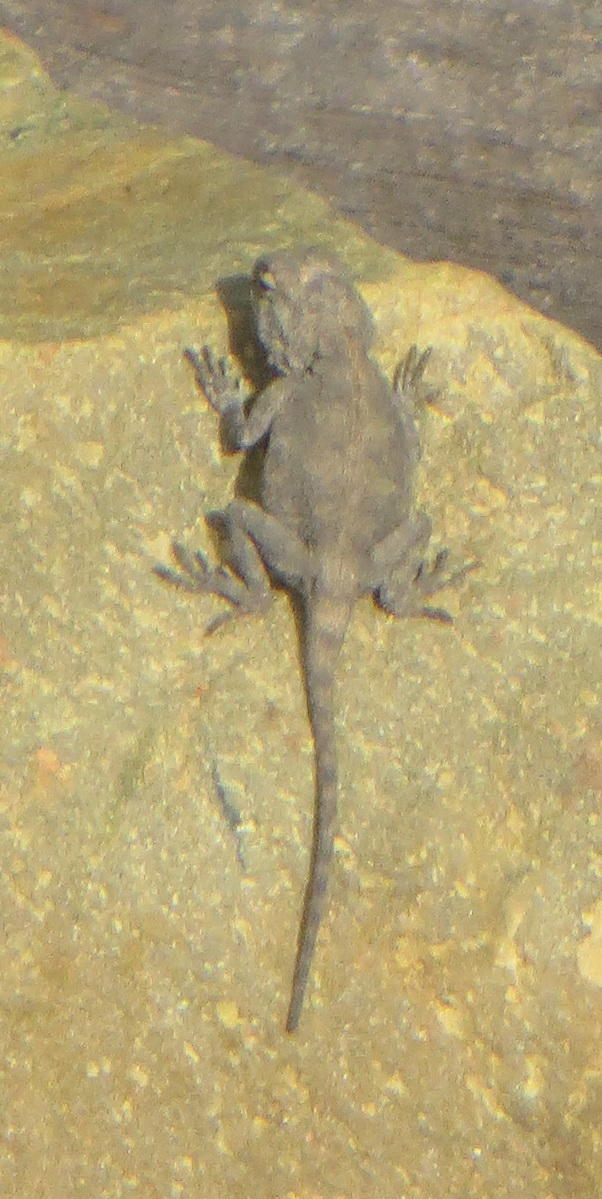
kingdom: Animalia
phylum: Chordata
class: Squamata
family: Agamidae
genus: Agama
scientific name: Agama atra
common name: Southern african rock agama
